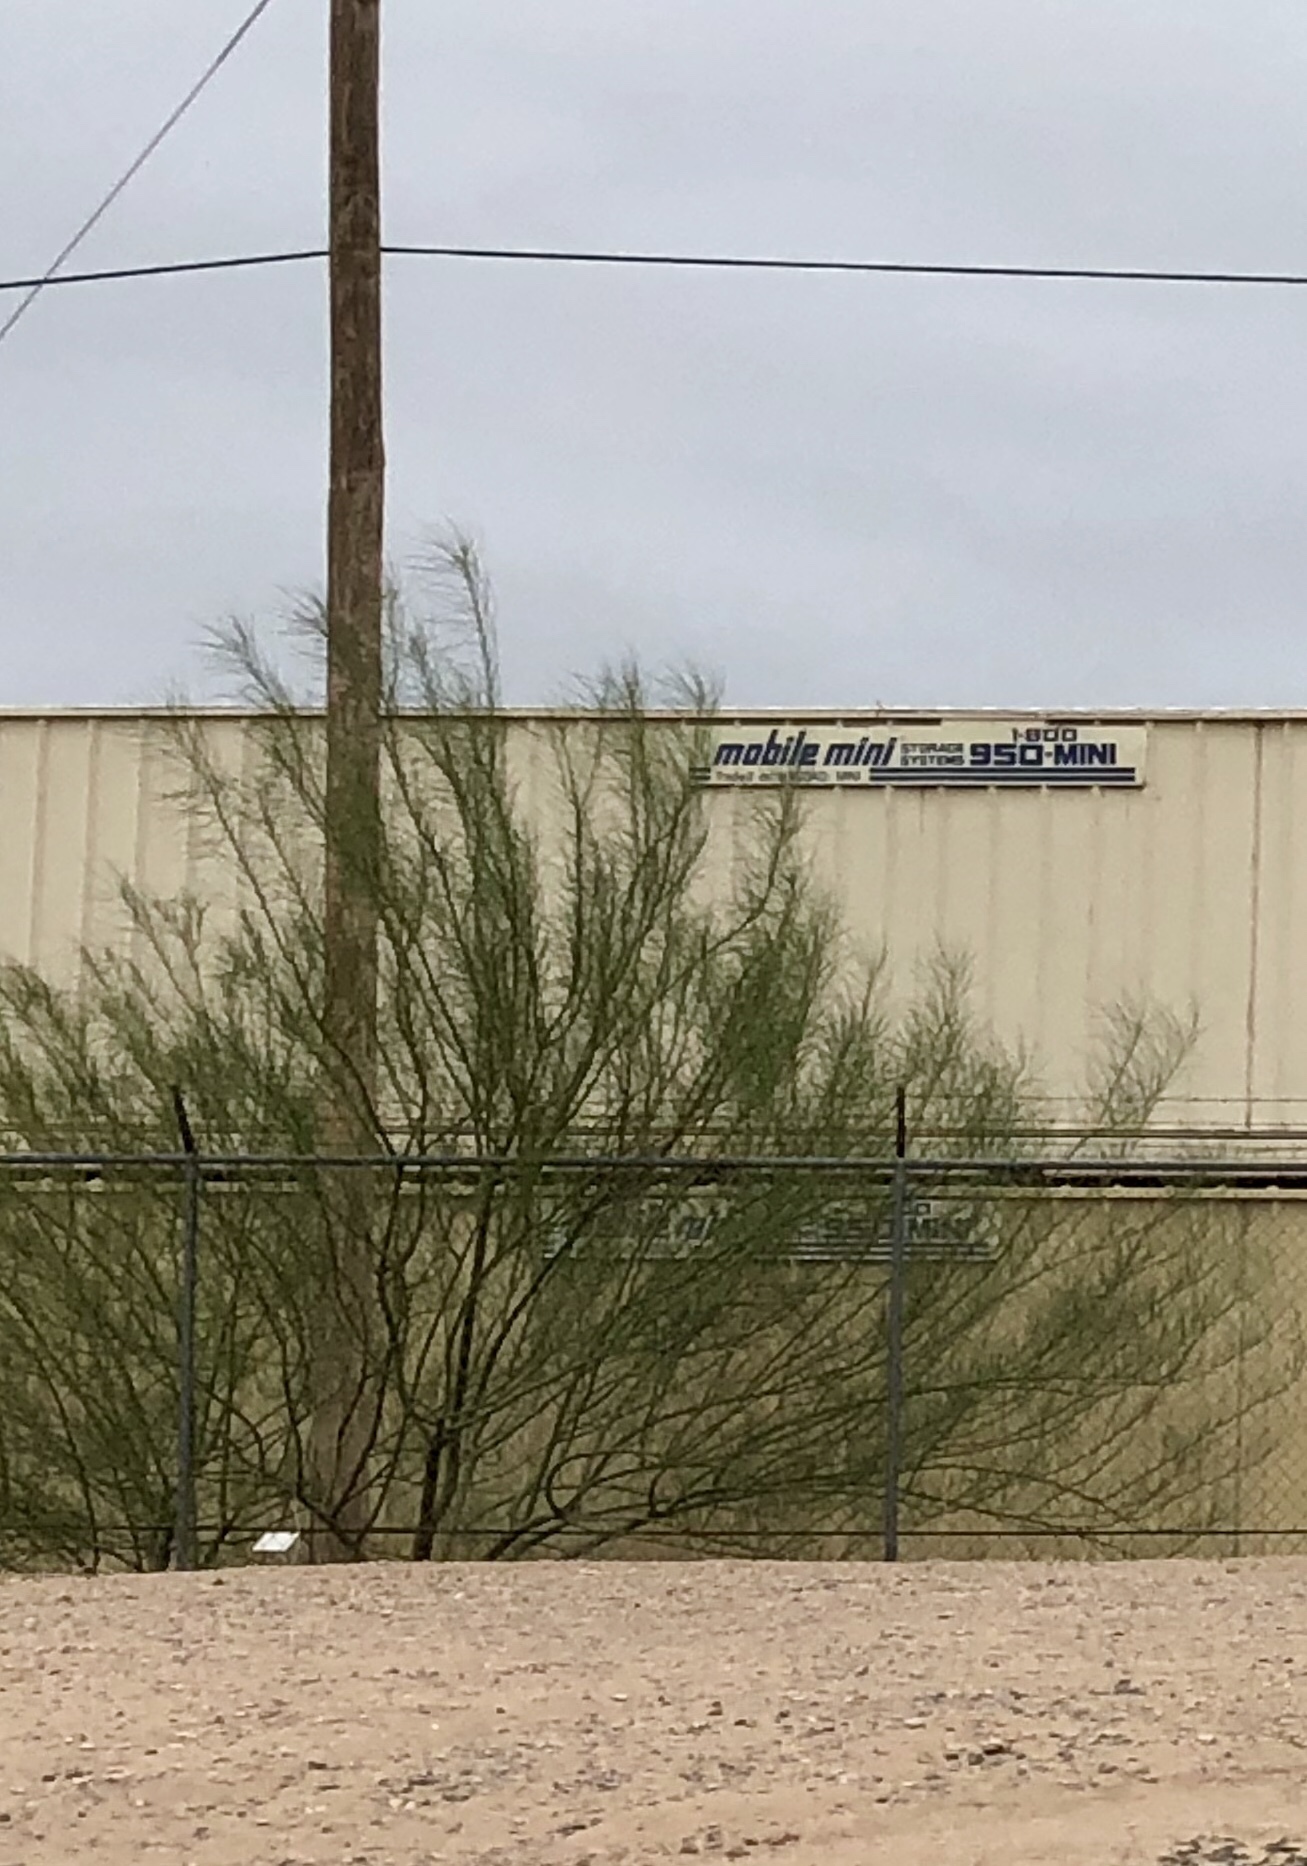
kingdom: Plantae
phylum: Tracheophyta
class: Magnoliopsida
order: Fabales
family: Fabaceae
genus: Parkinsonia
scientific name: Parkinsonia aculeata
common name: Jerusalem thorn
